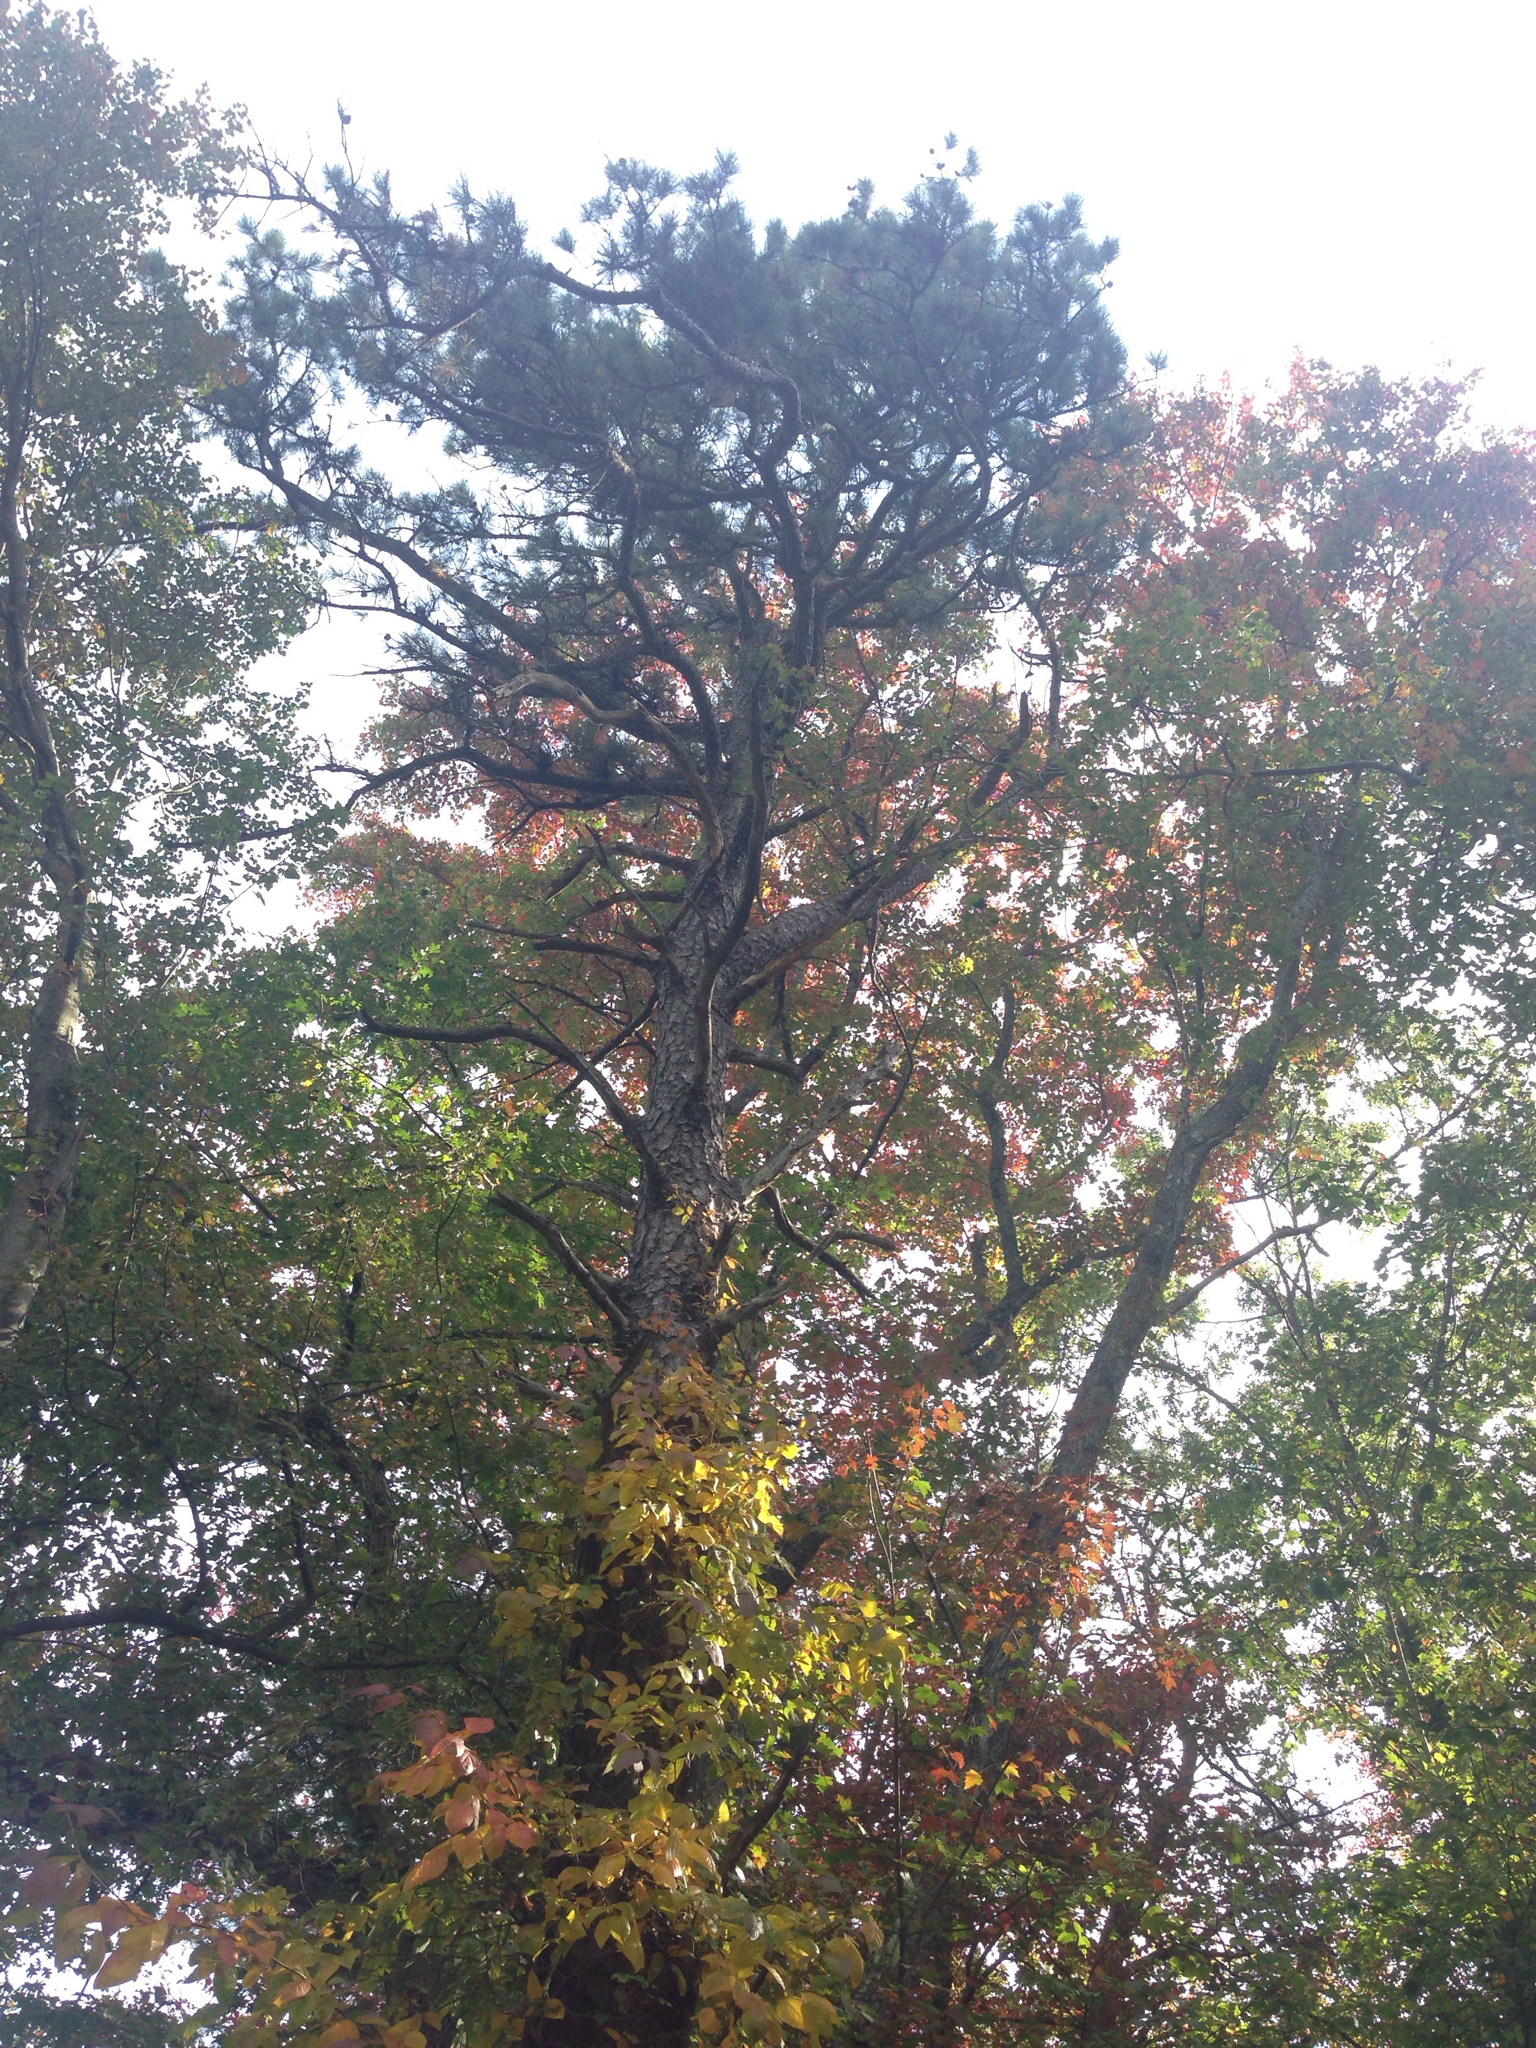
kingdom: Plantae
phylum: Tracheophyta
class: Pinopsida
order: Pinales
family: Pinaceae
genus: Pinus
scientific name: Pinus rigida
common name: Pitch pine
